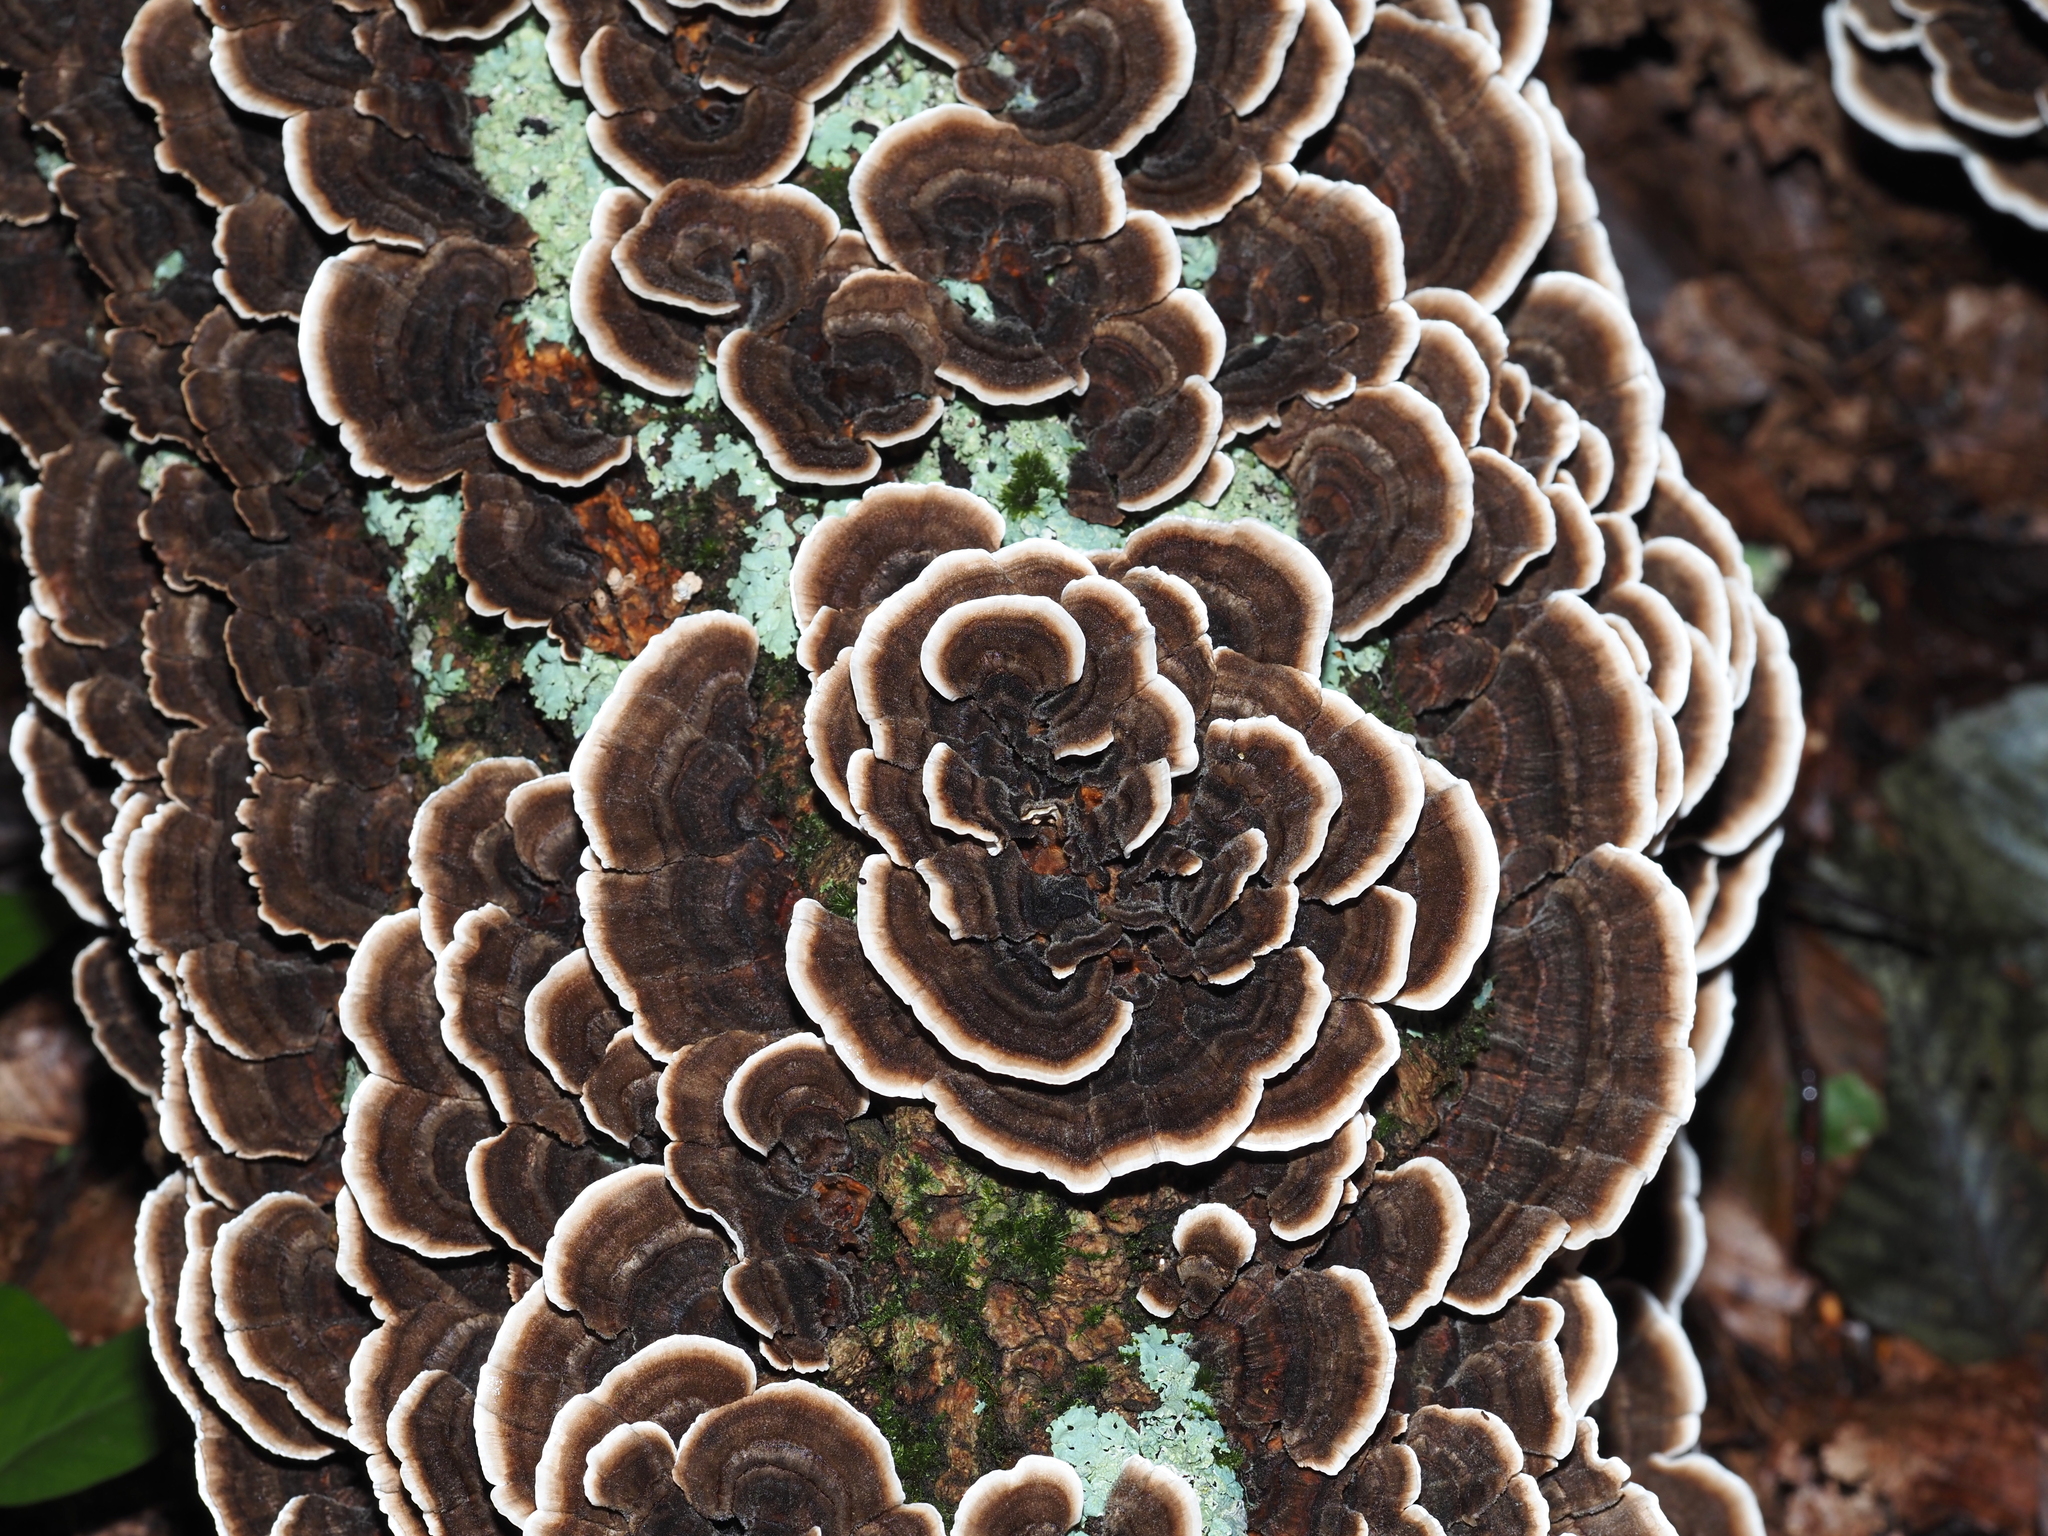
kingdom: Fungi
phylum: Basidiomycota
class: Agaricomycetes
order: Polyporales
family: Polyporaceae
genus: Trametes
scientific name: Trametes versicolor
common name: Turkeytail
